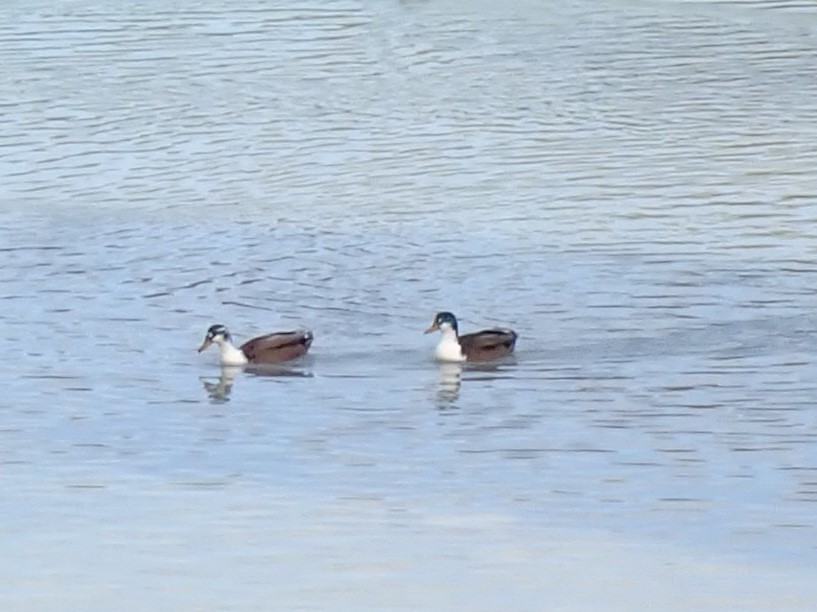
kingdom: Animalia
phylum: Chordata
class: Aves
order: Anseriformes
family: Anatidae
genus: Anas
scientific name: Anas platyrhynchos
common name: Mallard
